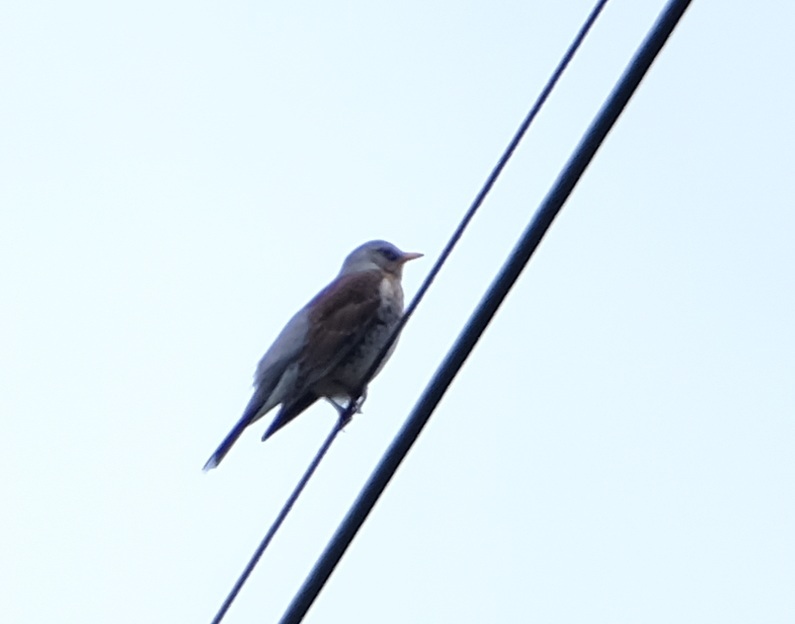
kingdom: Animalia
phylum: Chordata
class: Aves
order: Passeriformes
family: Turdidae
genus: Turdus
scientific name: Turdus pilaris
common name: Fieldfare
